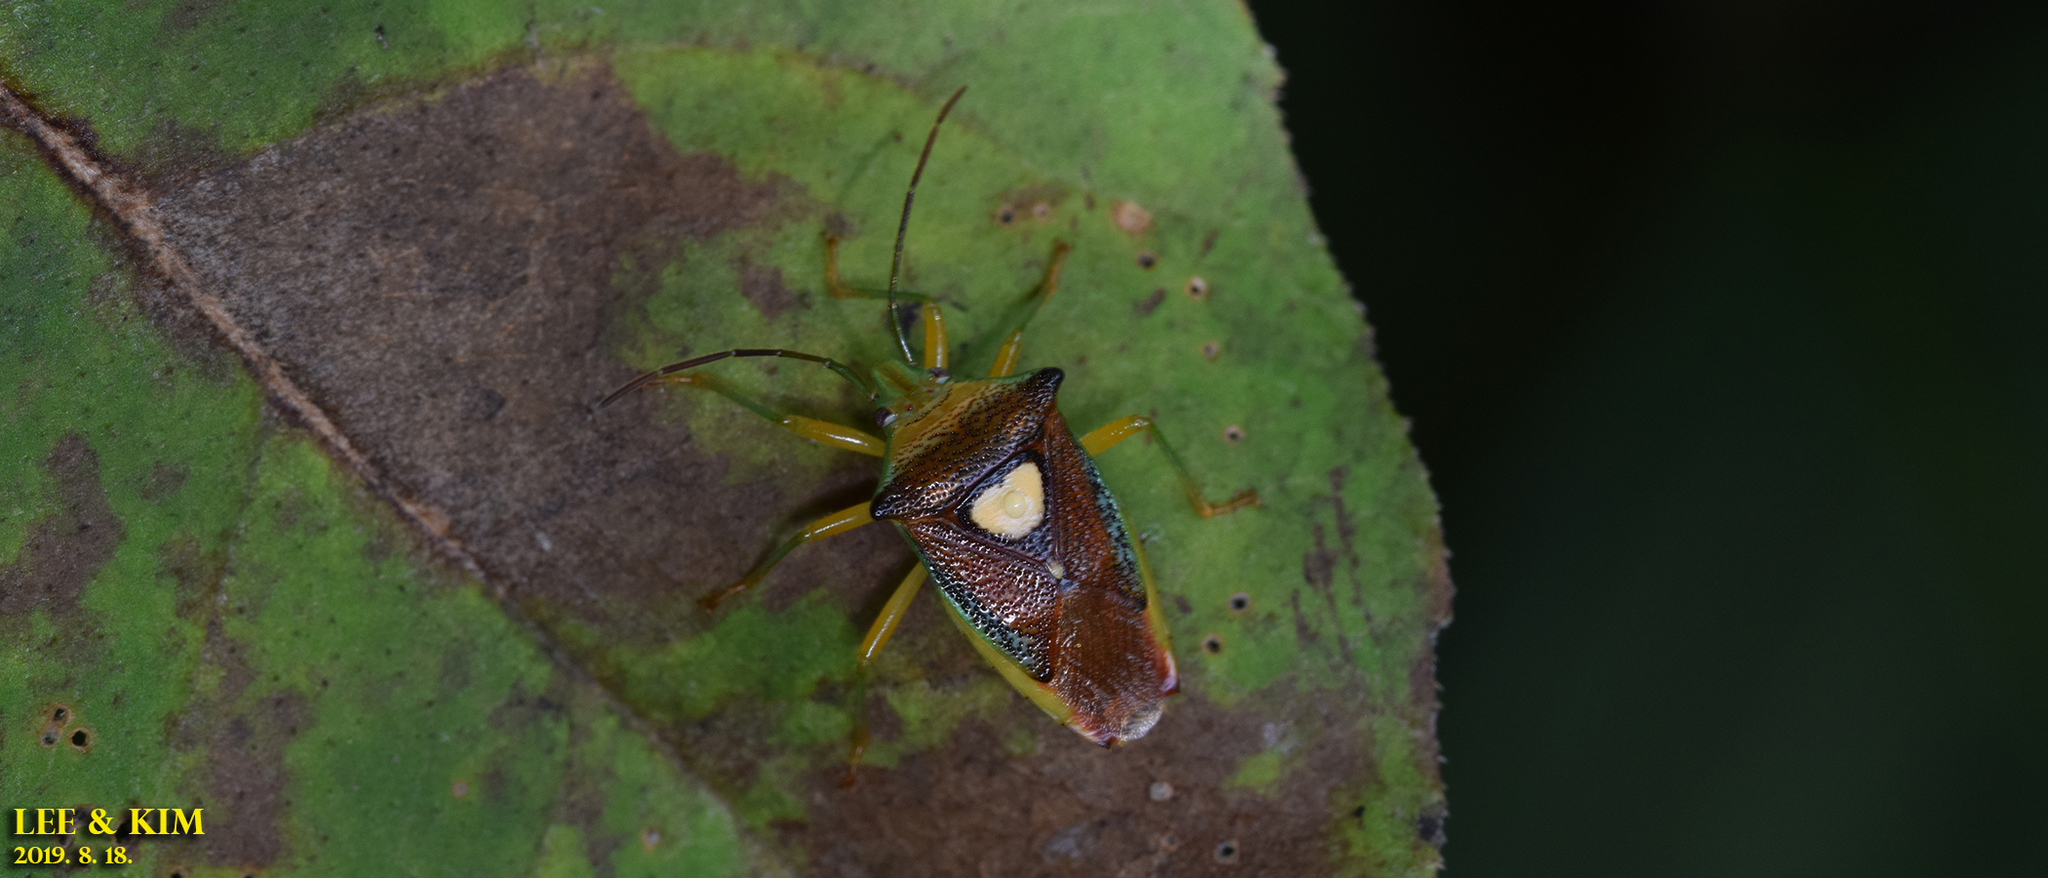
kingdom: Animalia
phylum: Arthropoda
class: Insecta
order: Hemiptera
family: Acanthosomatidae
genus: Sastragala
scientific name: Sastragala esakii
